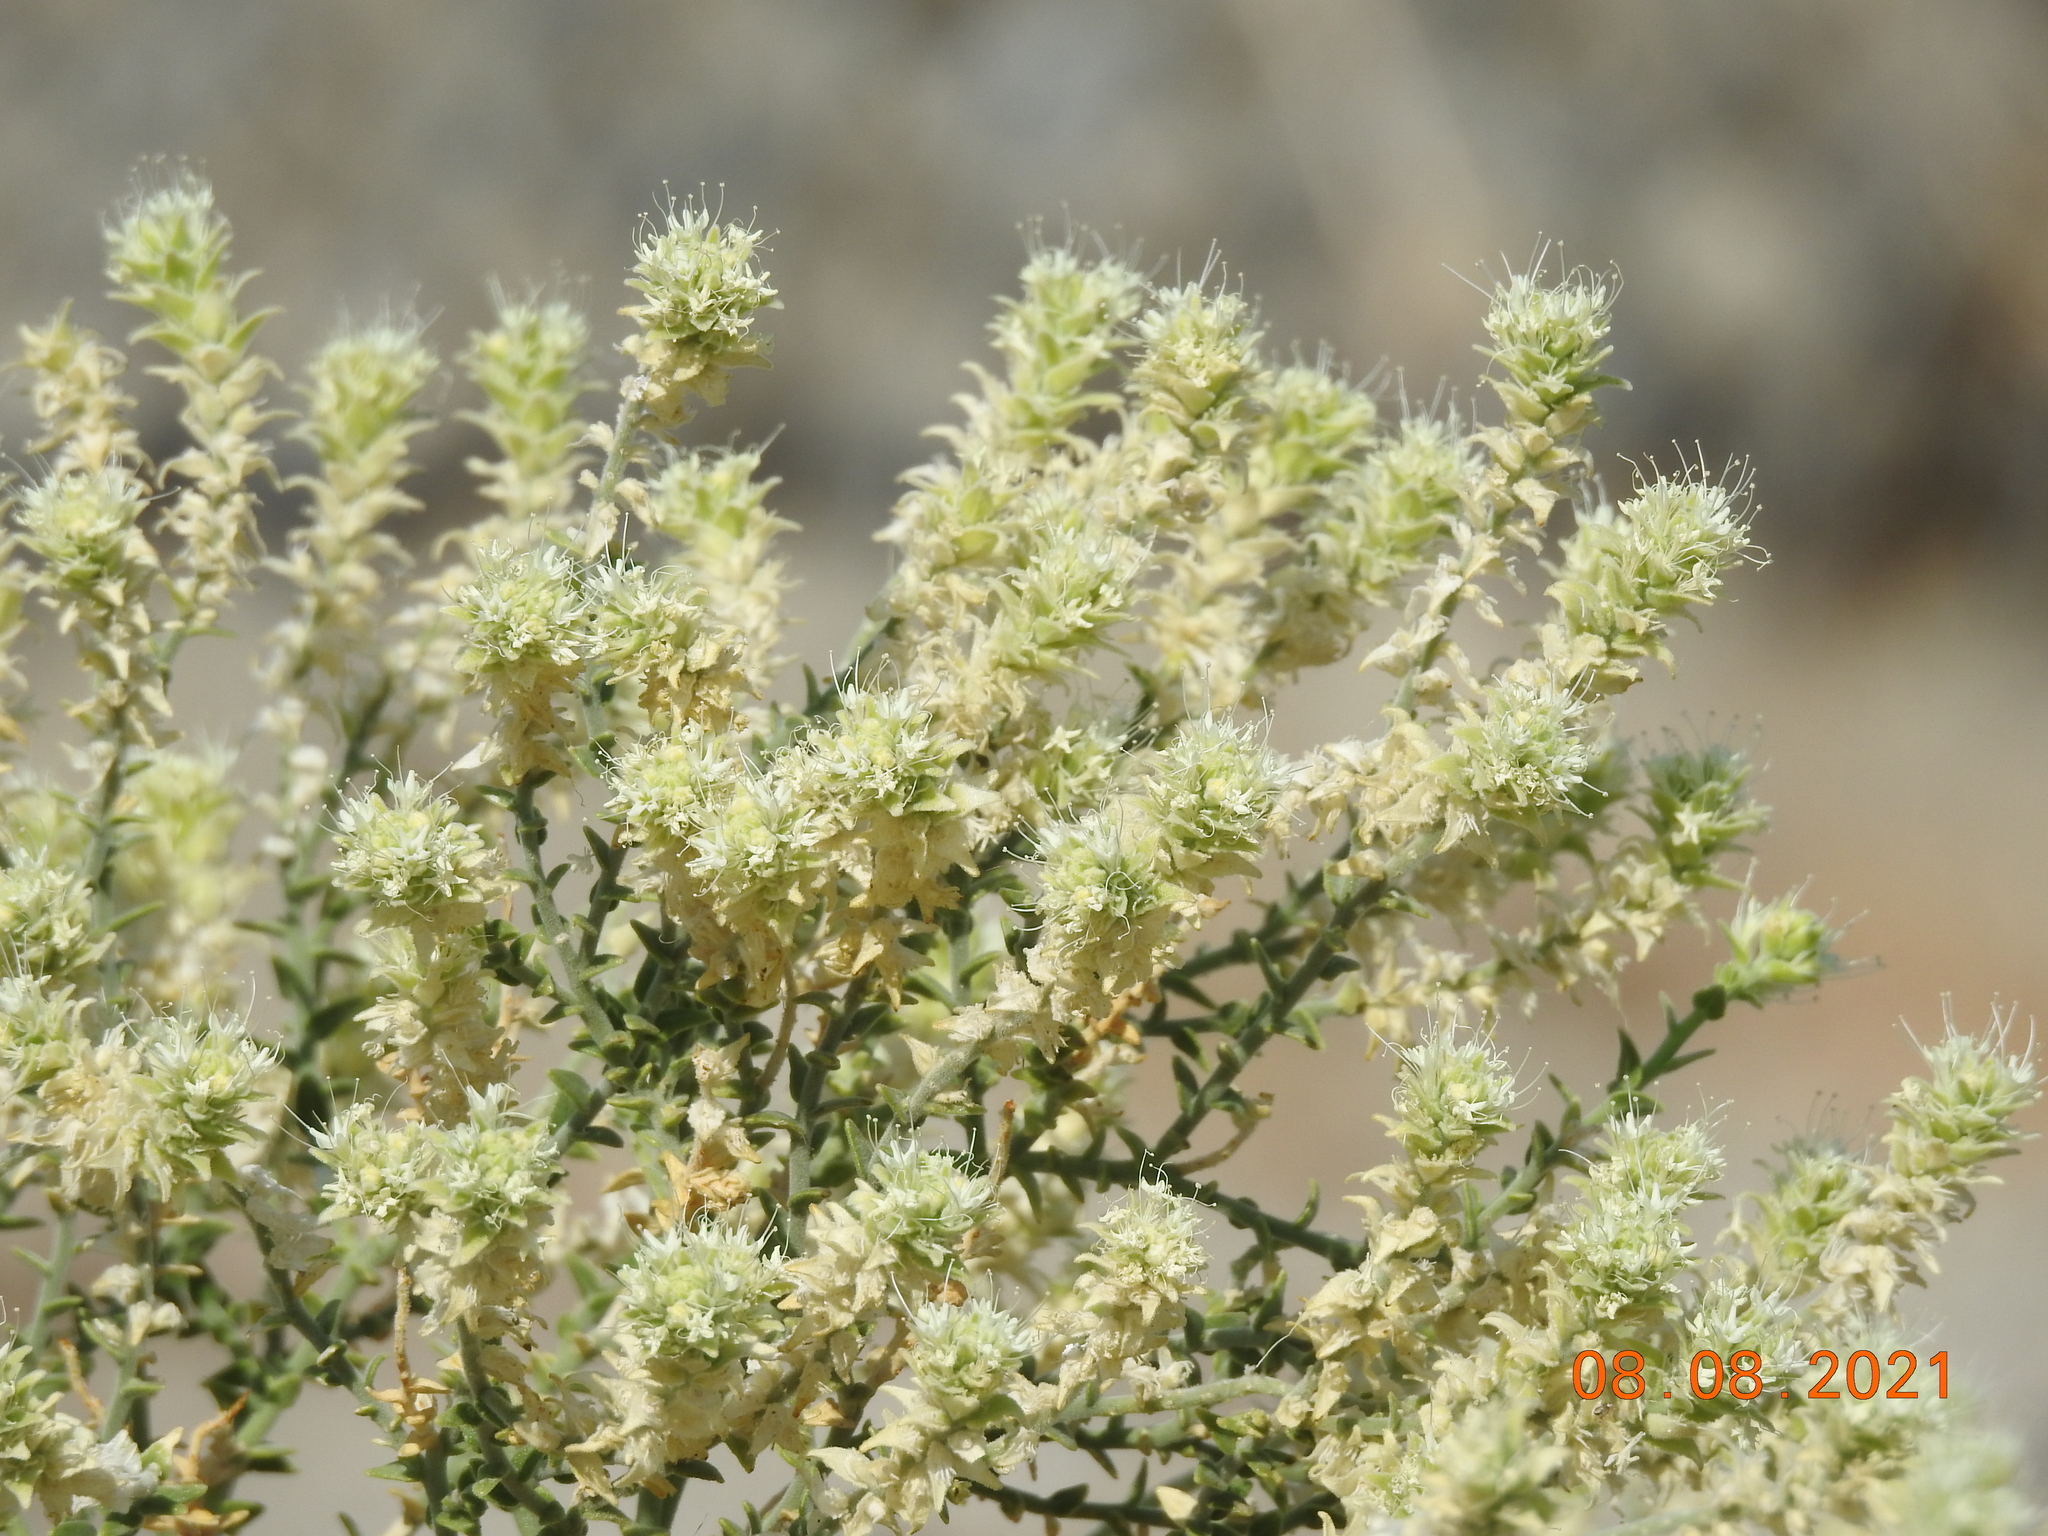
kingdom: Plantae
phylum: Tracheophyta
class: Magnoliopsida
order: Cornales
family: Loasaceae
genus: Petalonyx
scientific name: Petalonyx thurberi
